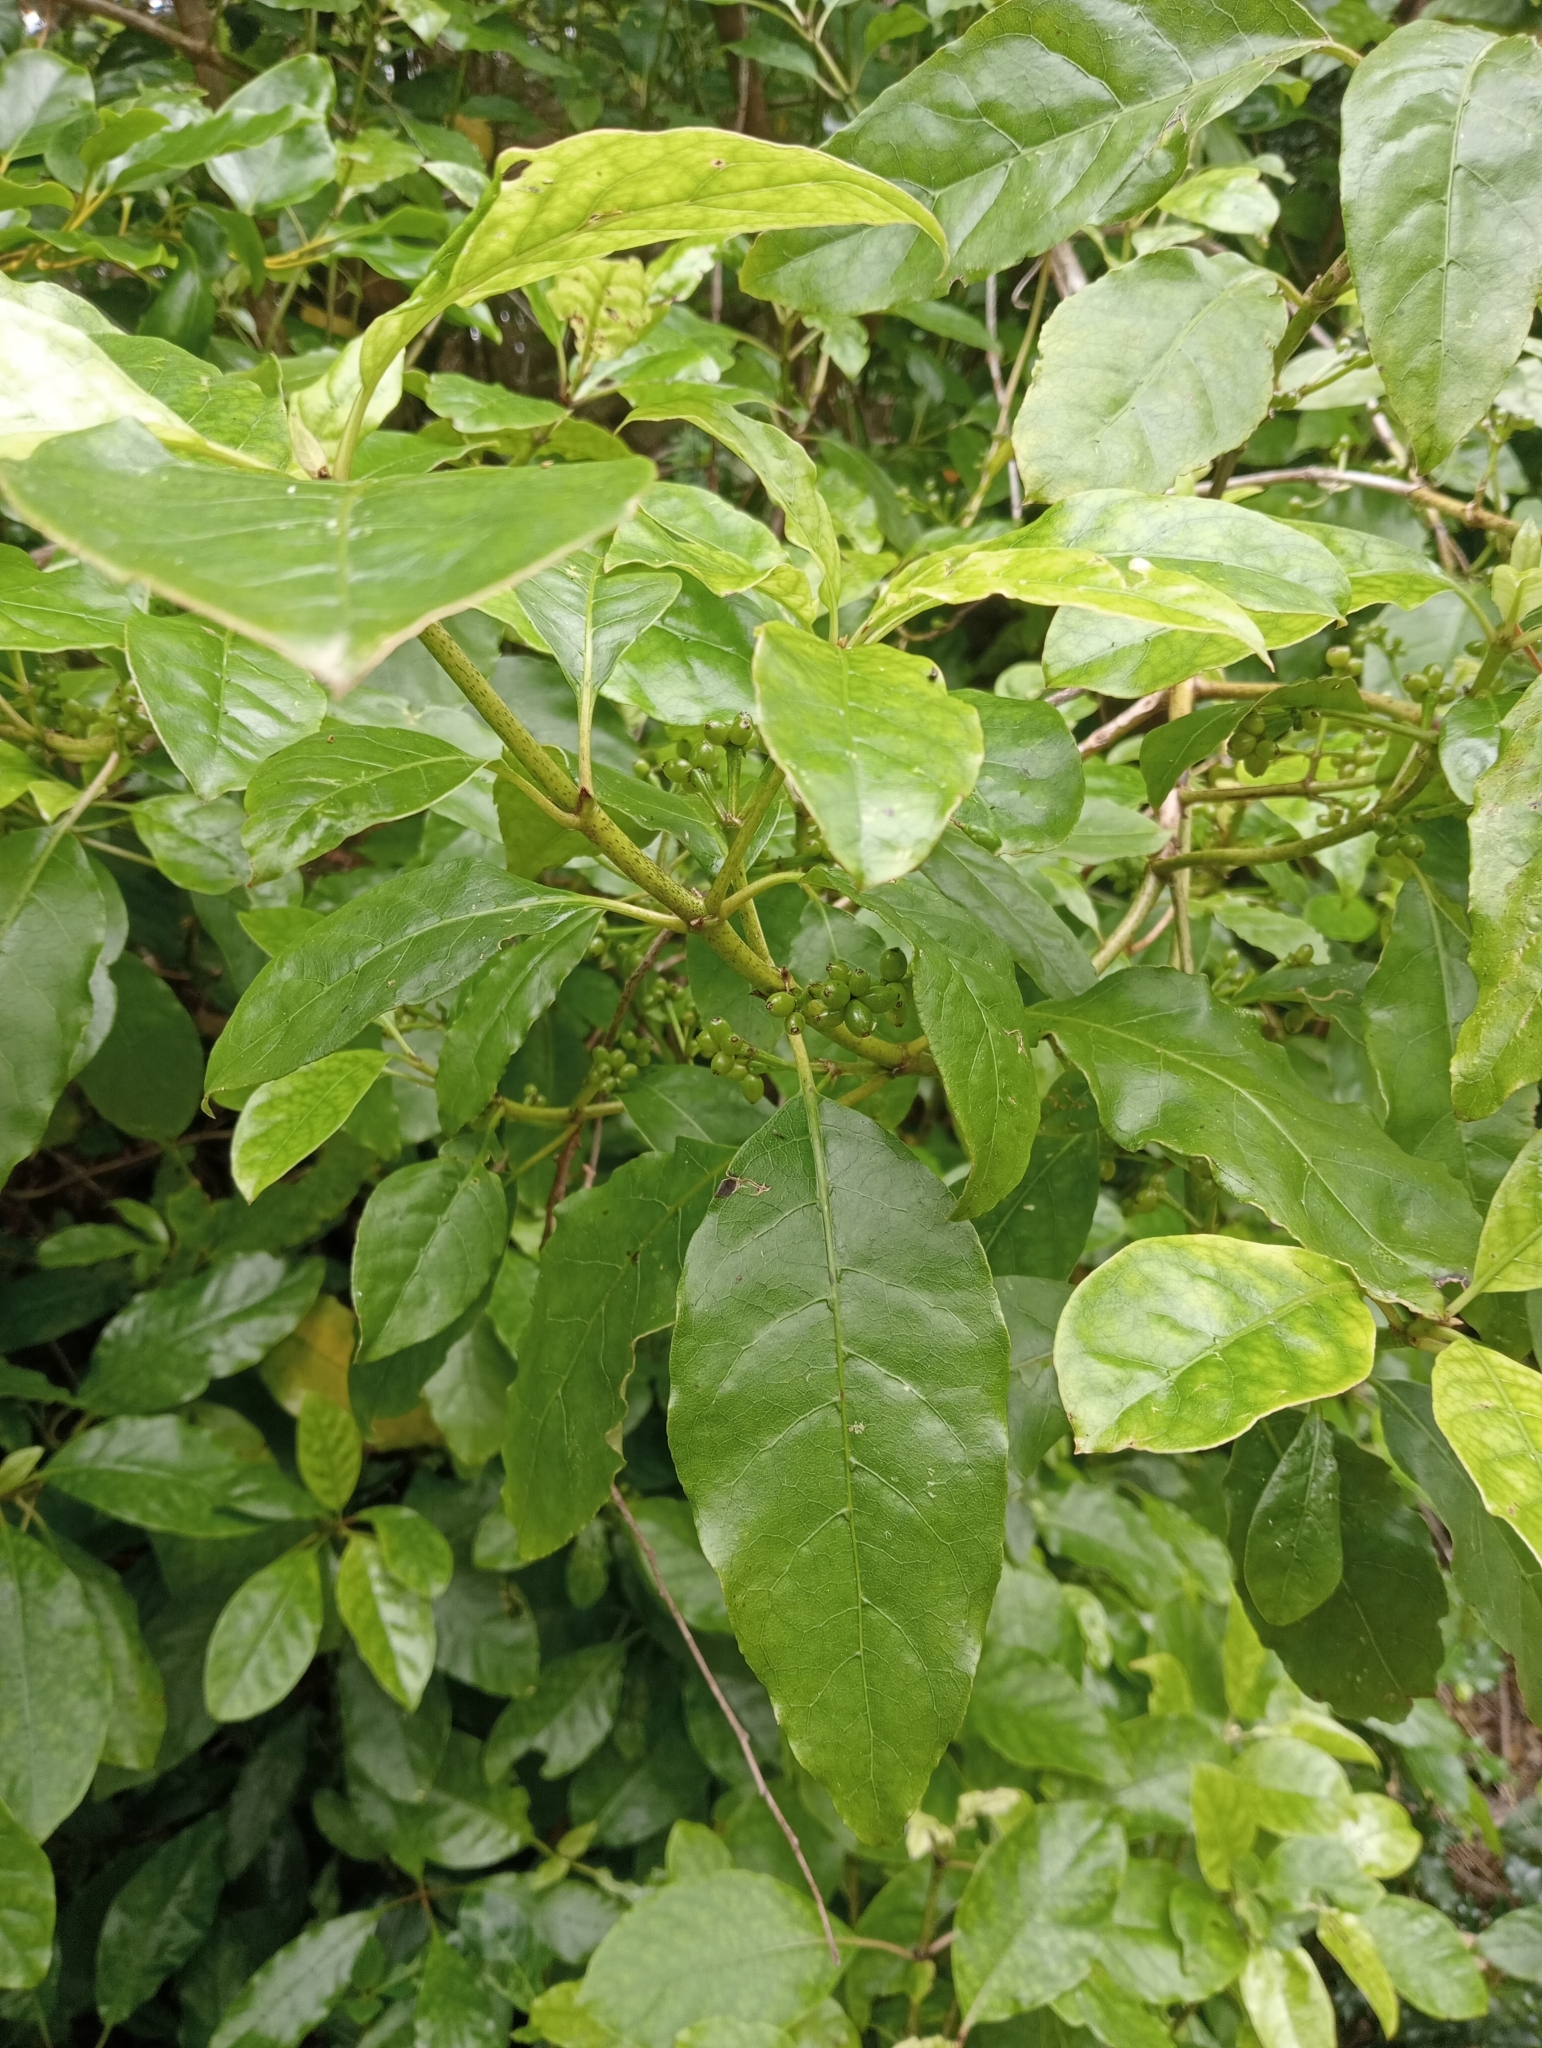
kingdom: Plantae
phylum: Tracheophyta
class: Magnoliopsida
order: Gentianales
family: Rubiaceae
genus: Coprosma
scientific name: Coprosma autumnalis
